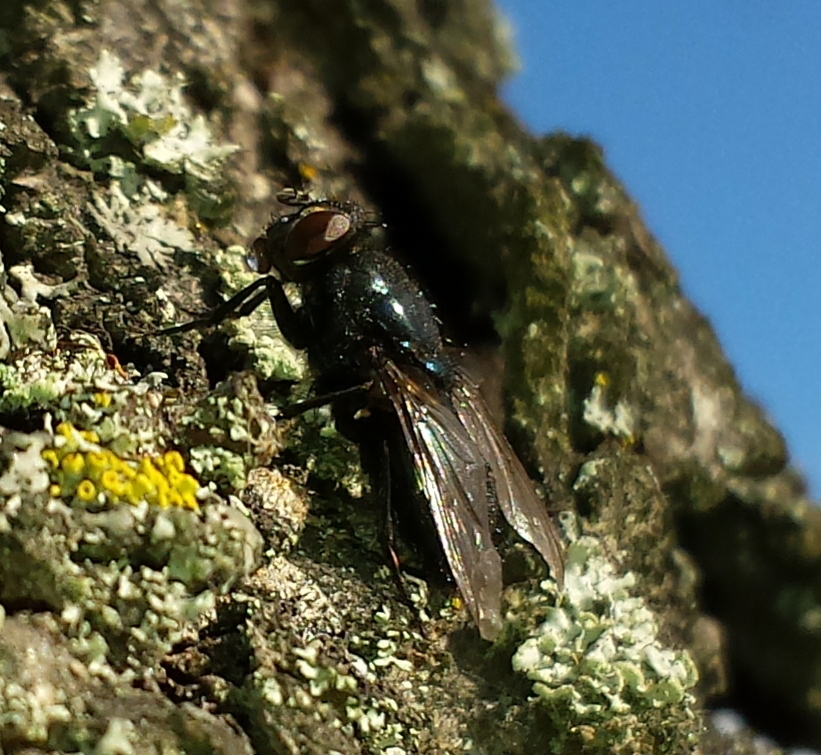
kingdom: Animalia
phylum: Arthropoda
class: Insecta
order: Diptera
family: Calliphoridae
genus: Protophormia
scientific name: Protophormia terraenovae
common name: Blackbottle
